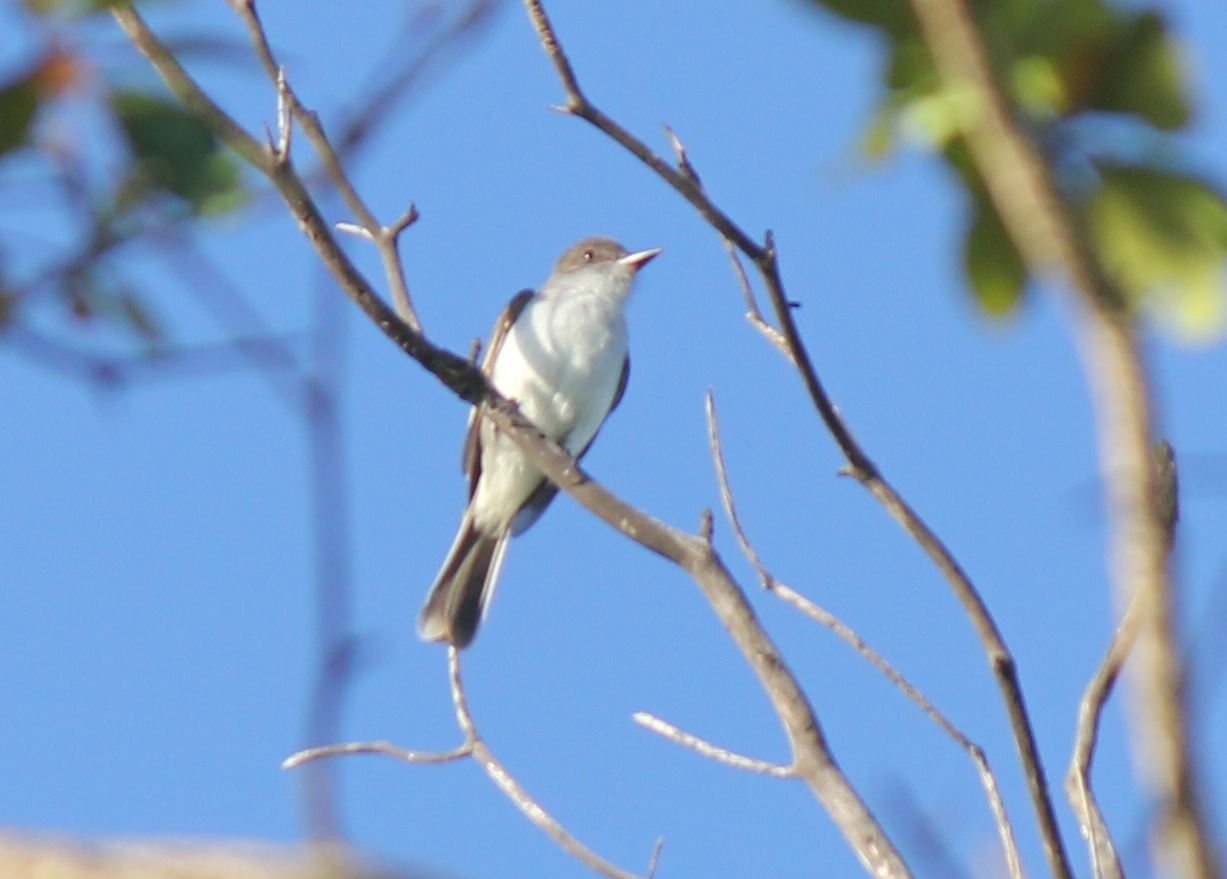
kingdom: Animalia
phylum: Chordata
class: Aves
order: Passeriformes
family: Tyrannidae
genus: Myiarchus
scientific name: Myiarchus antillarum
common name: Puerto rican flycatcher
